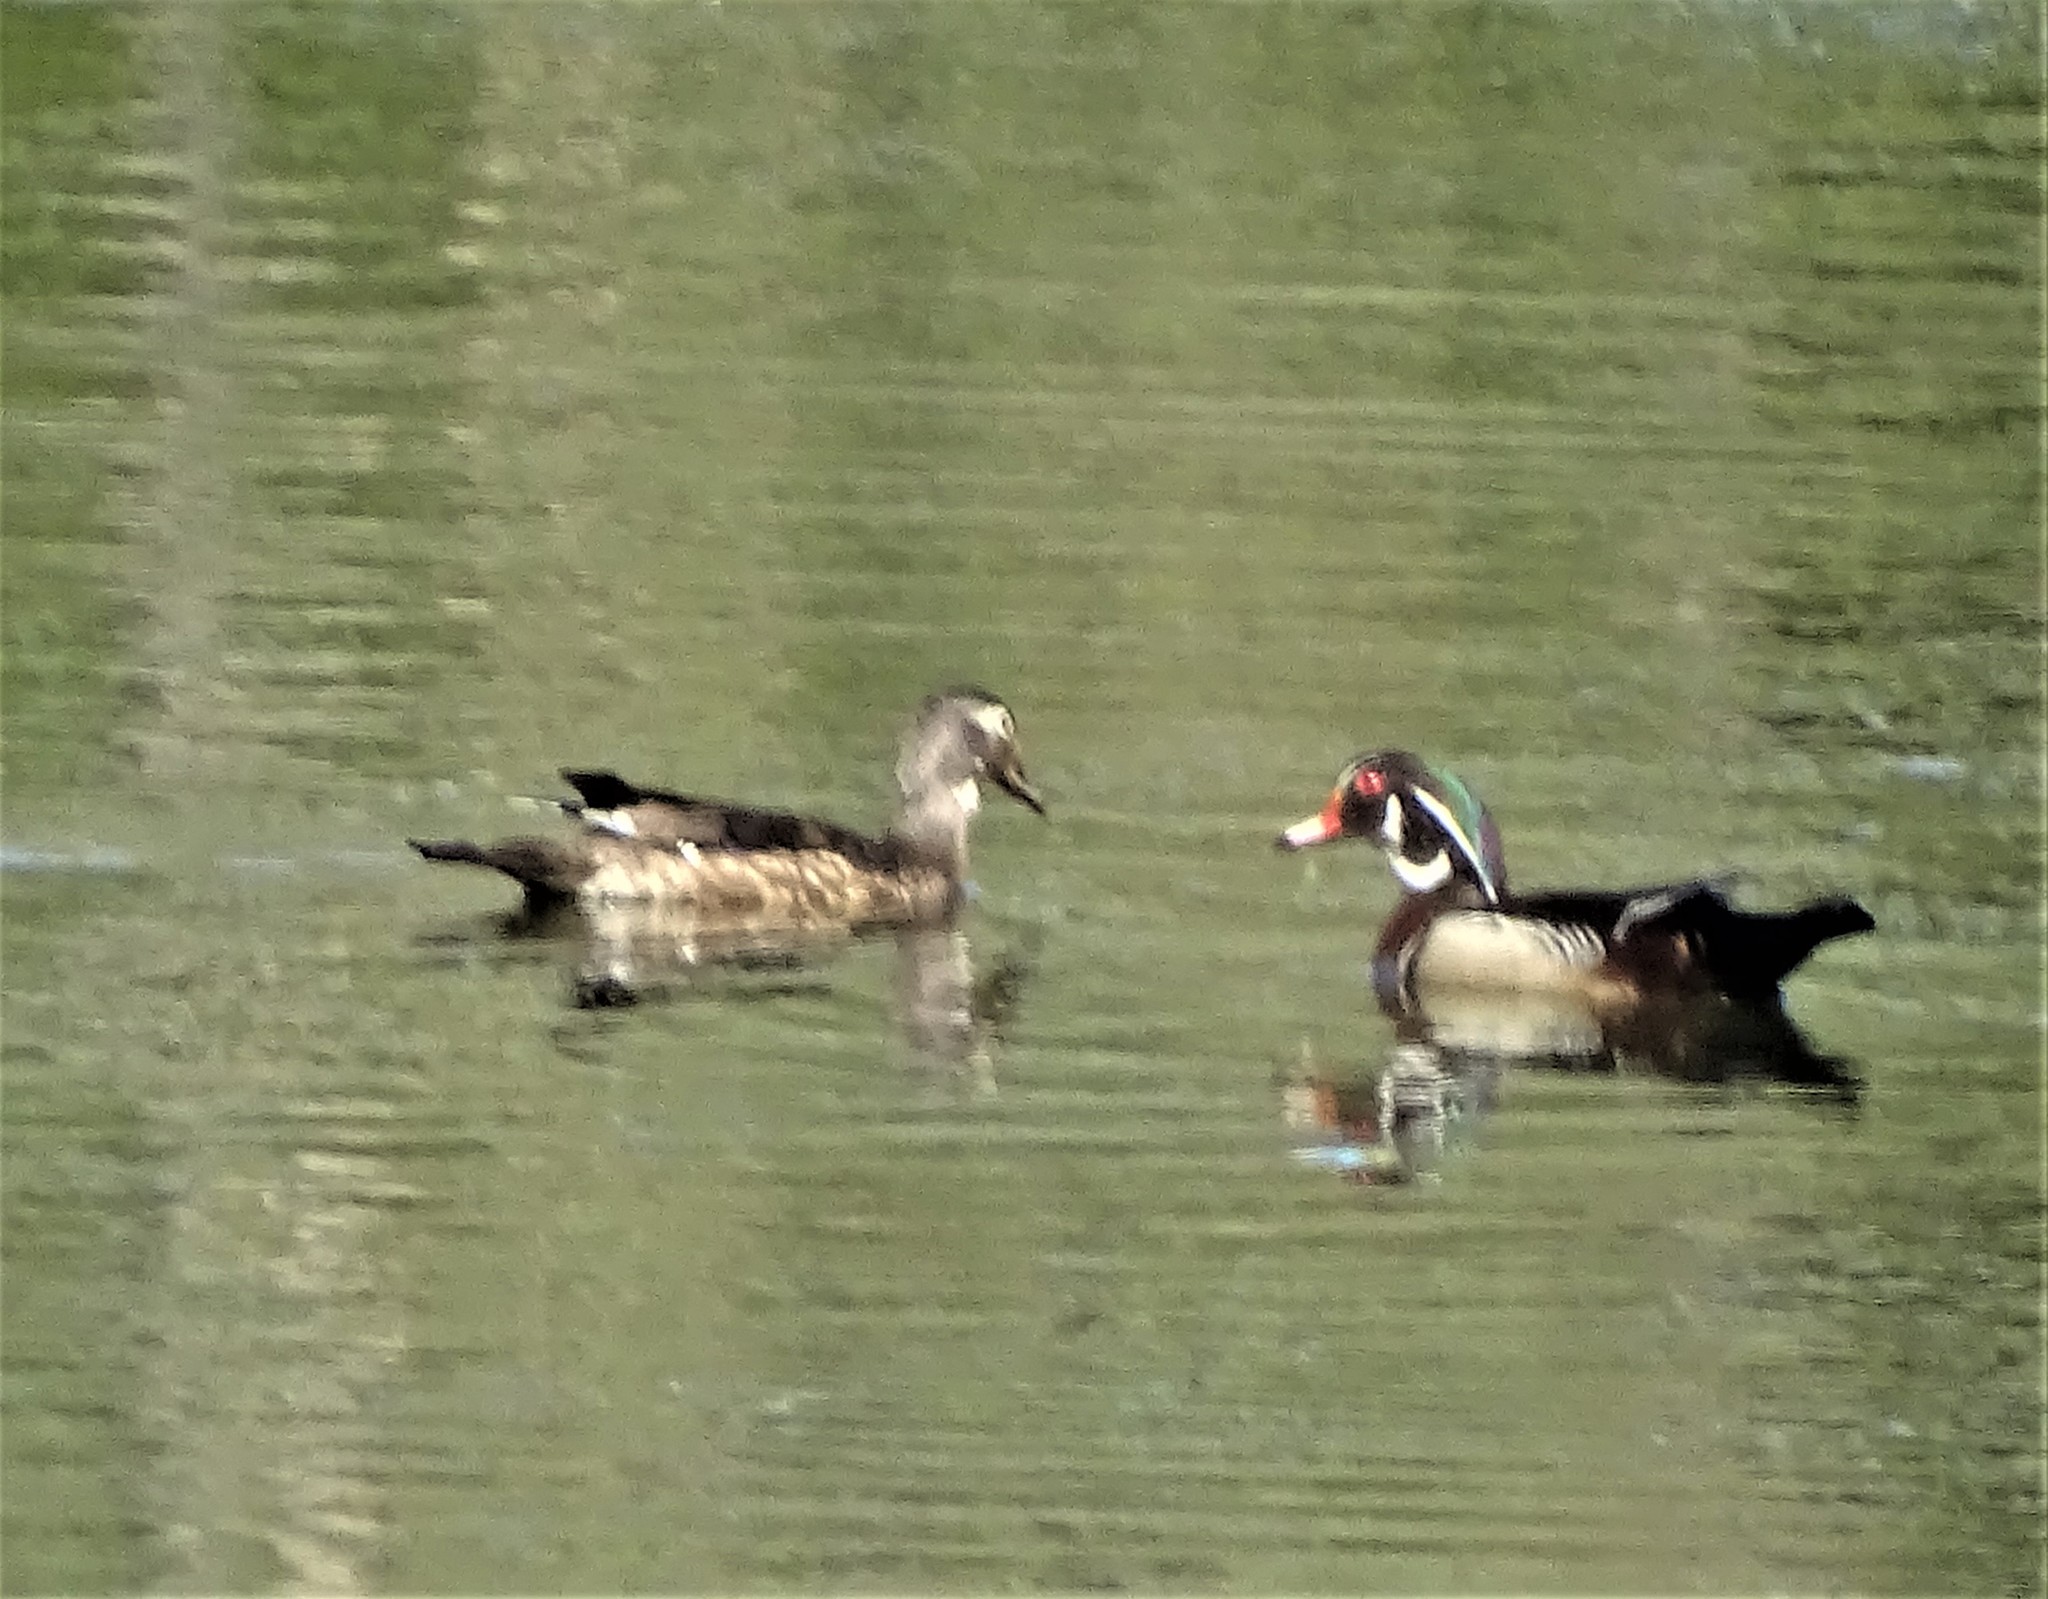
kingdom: Animalia
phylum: Chordata
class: Aves
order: Anseriformes
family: Anatidae
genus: Aix
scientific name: Aix sponsa
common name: Wood duck
